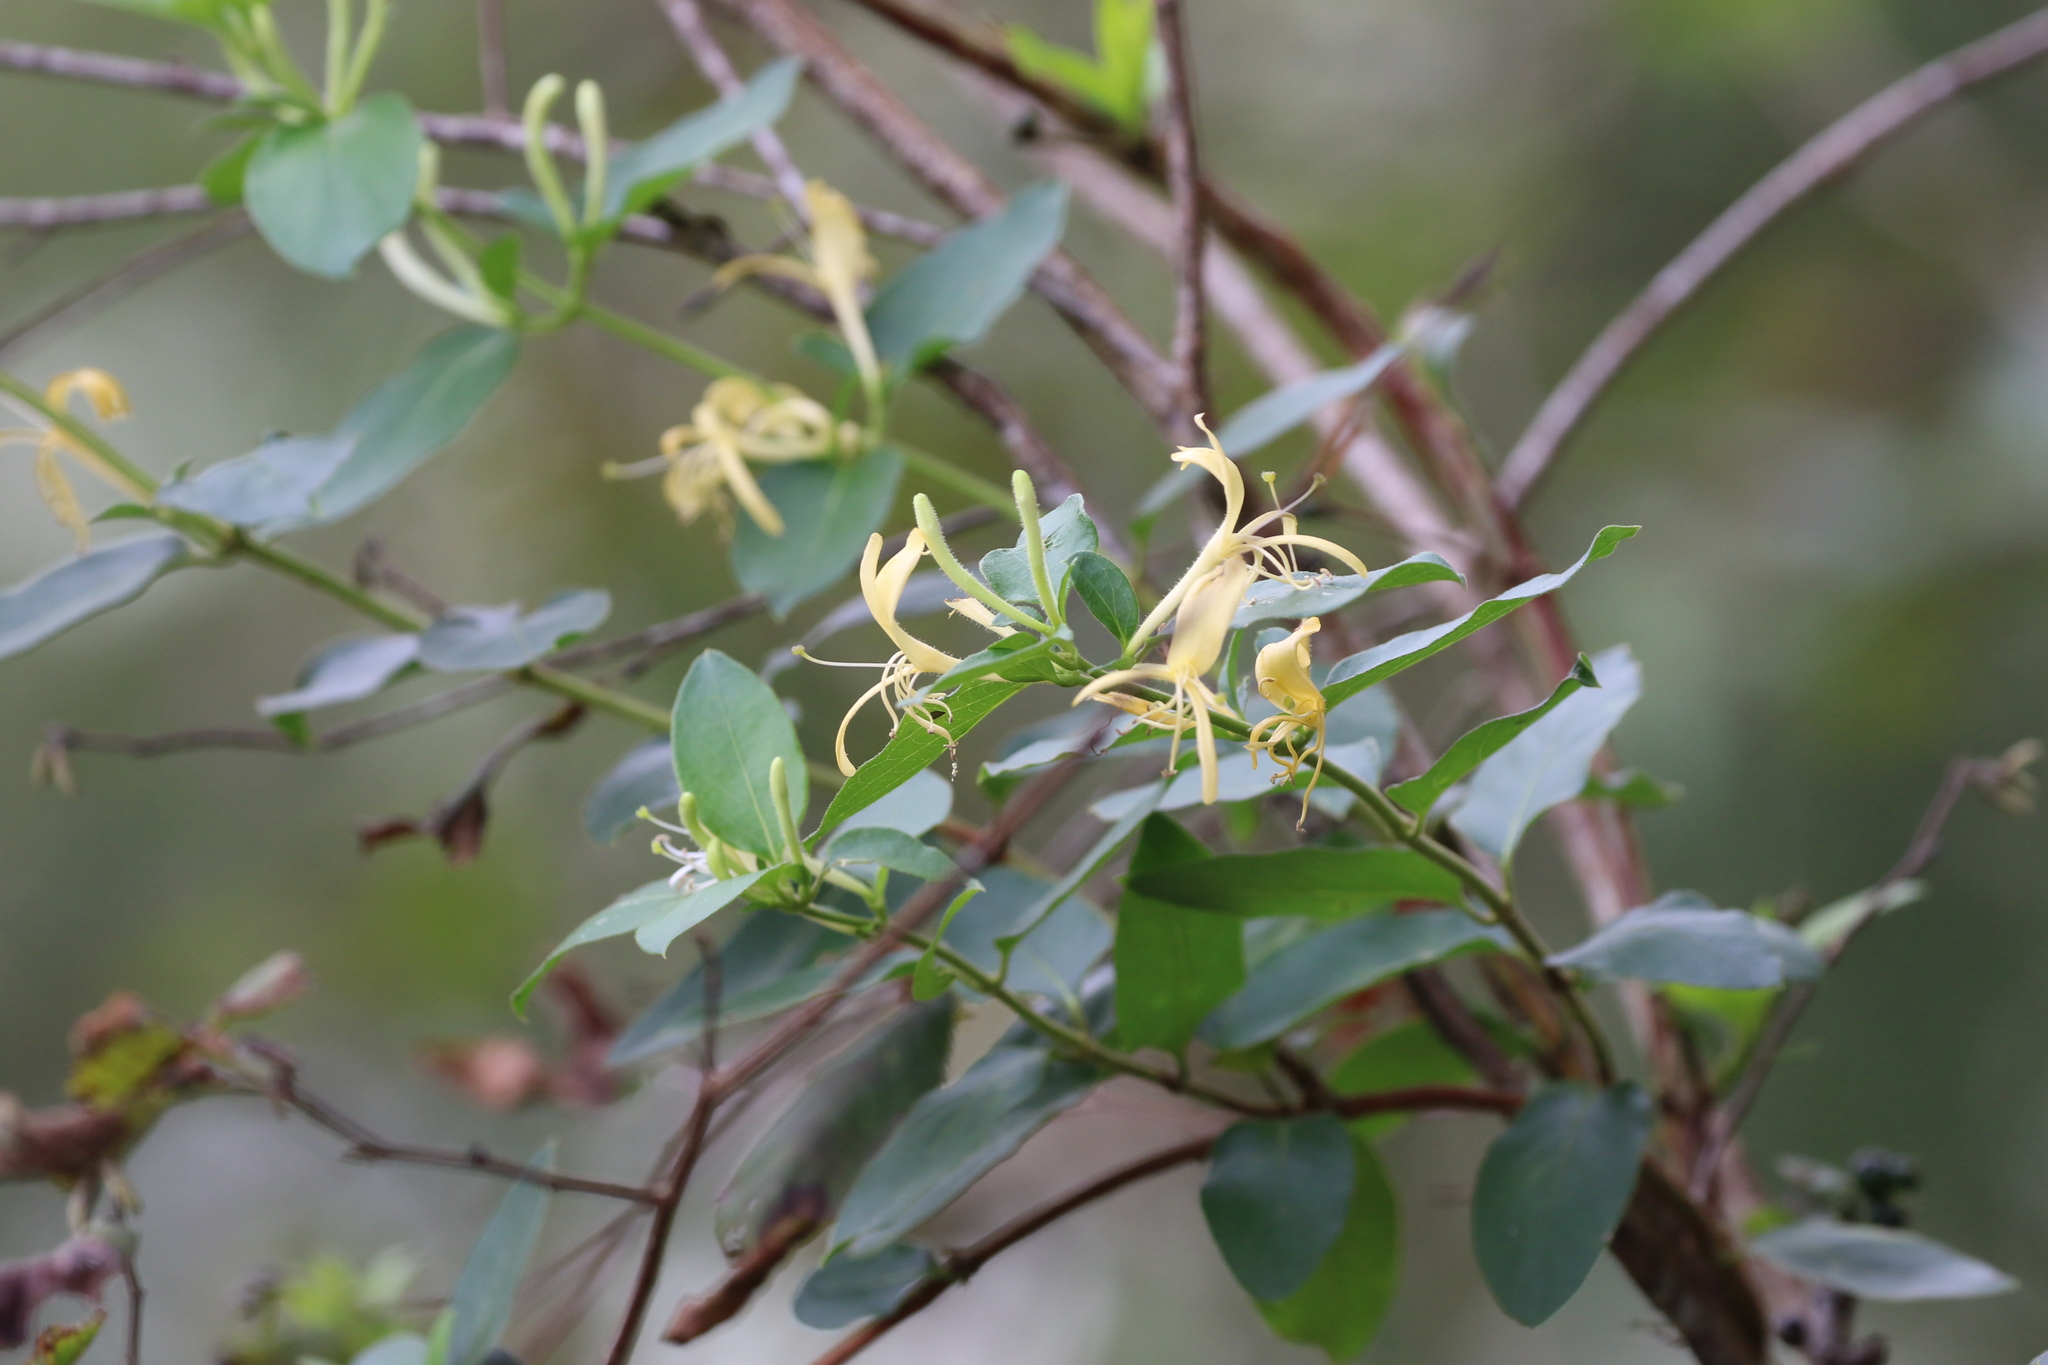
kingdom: Plantae
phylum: Tracheophyta
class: Magnoliopsida
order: Dipsacales
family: Caprifoliaceae
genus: Lonicera
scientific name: Lonicera japonica
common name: Japanese honeysuckle
